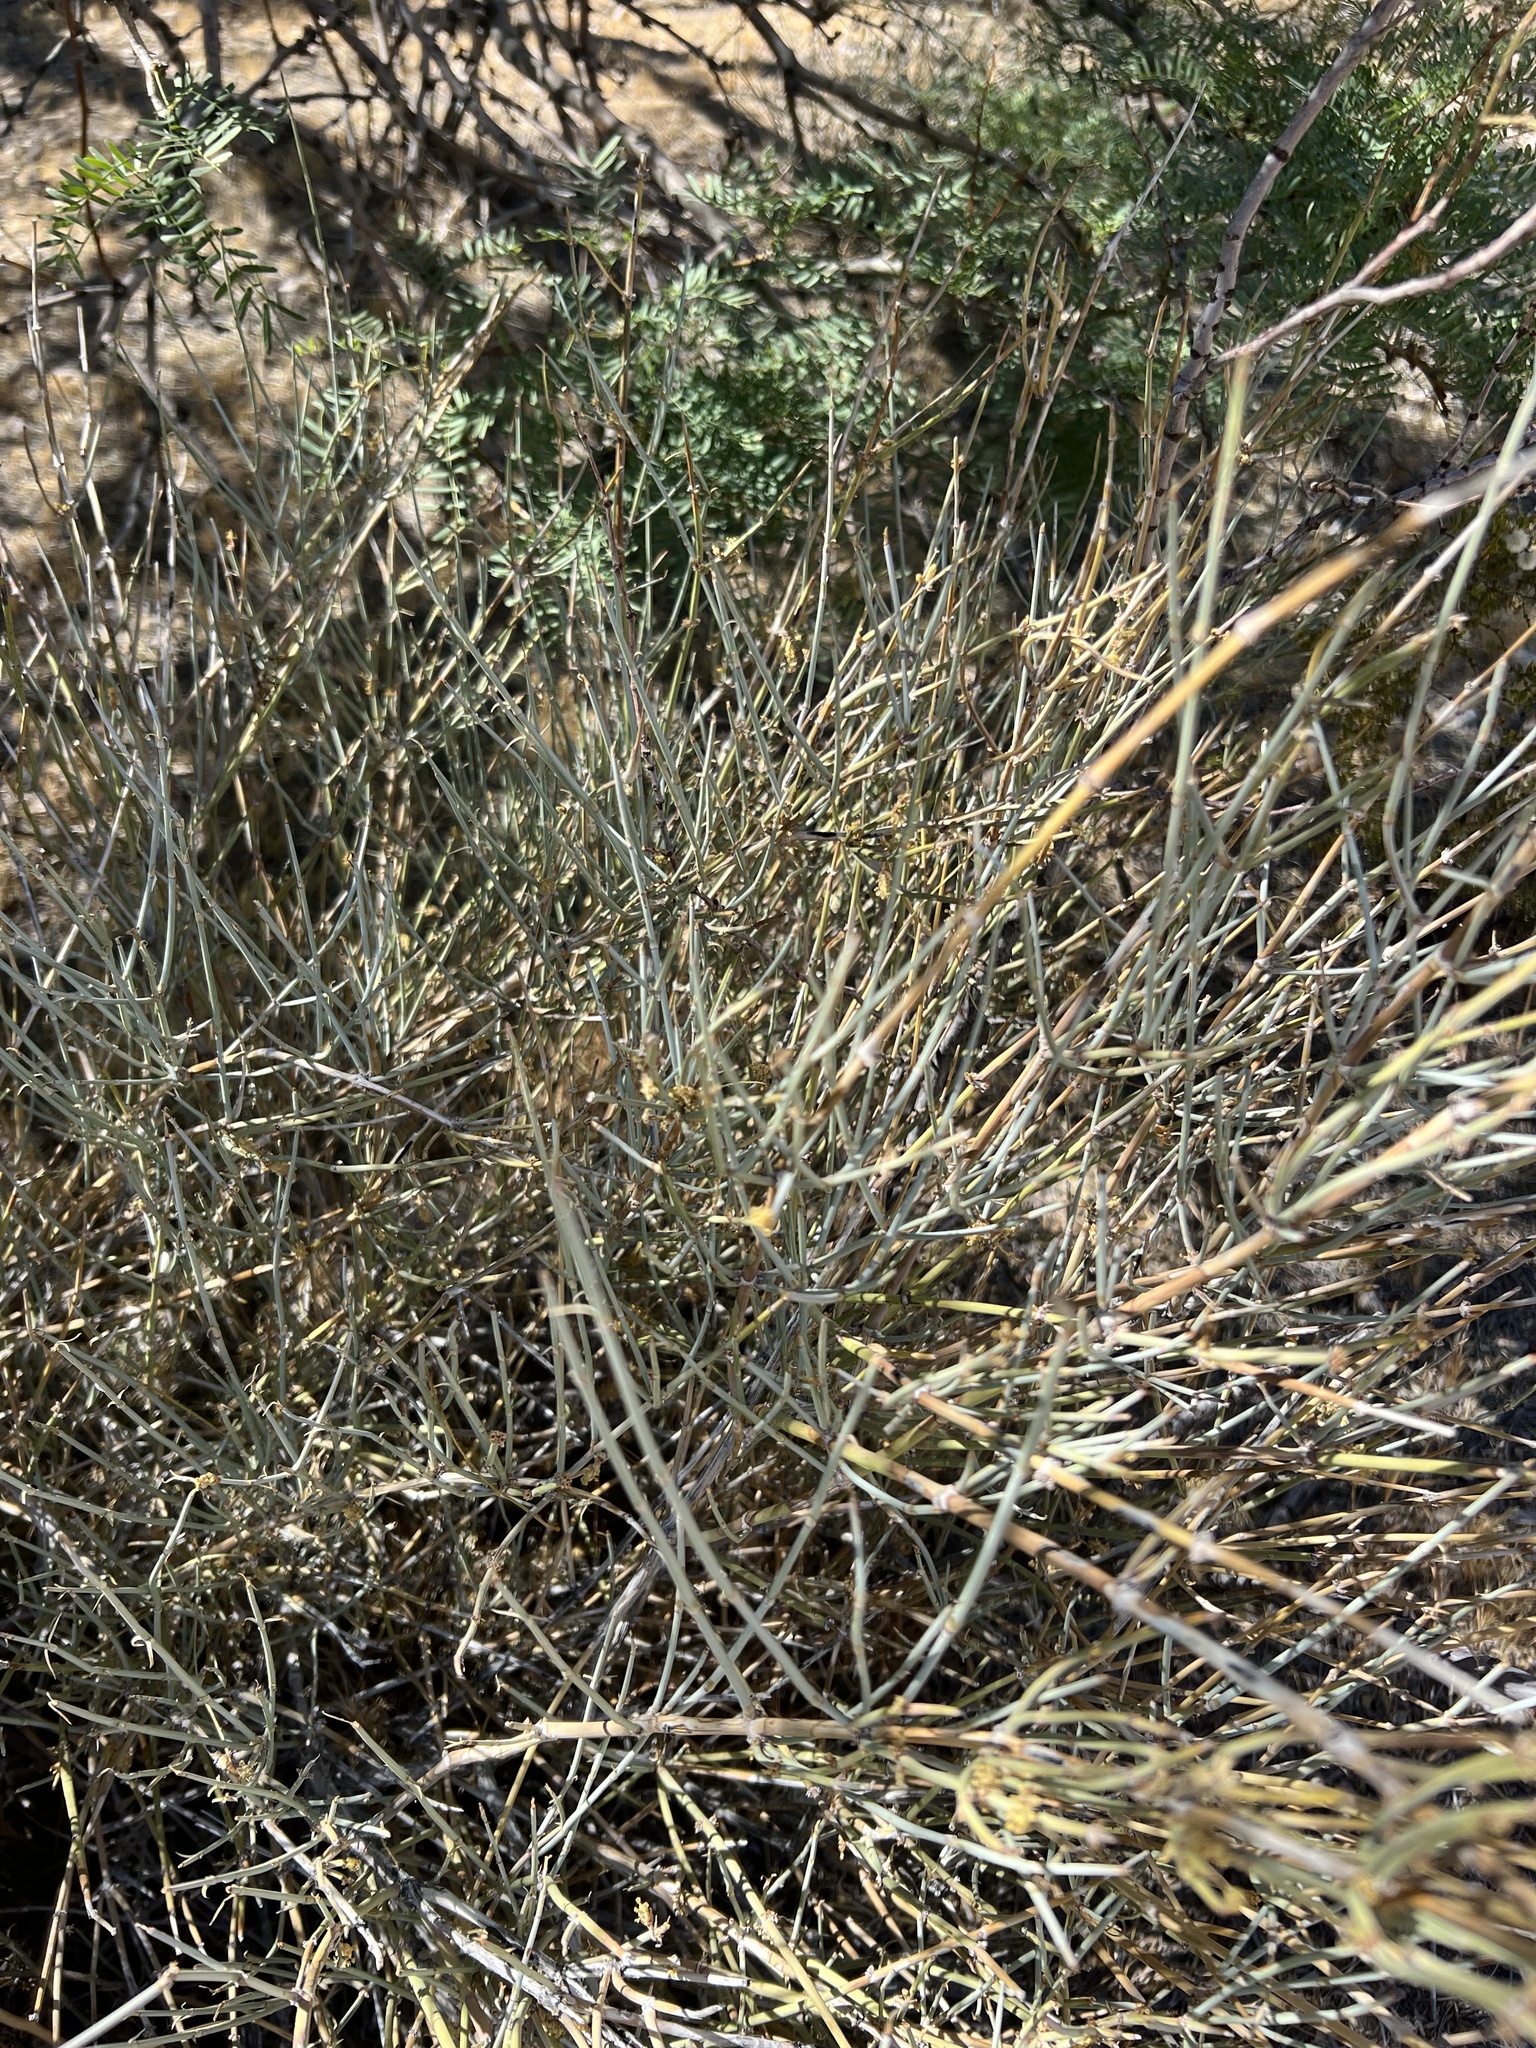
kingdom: Plantae
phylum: Tracheophyta
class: Gnetopsida
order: Ephedrales
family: Ephedraceae
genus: Ephedra
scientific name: Ephedra nevadensis
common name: Gray ephedra
